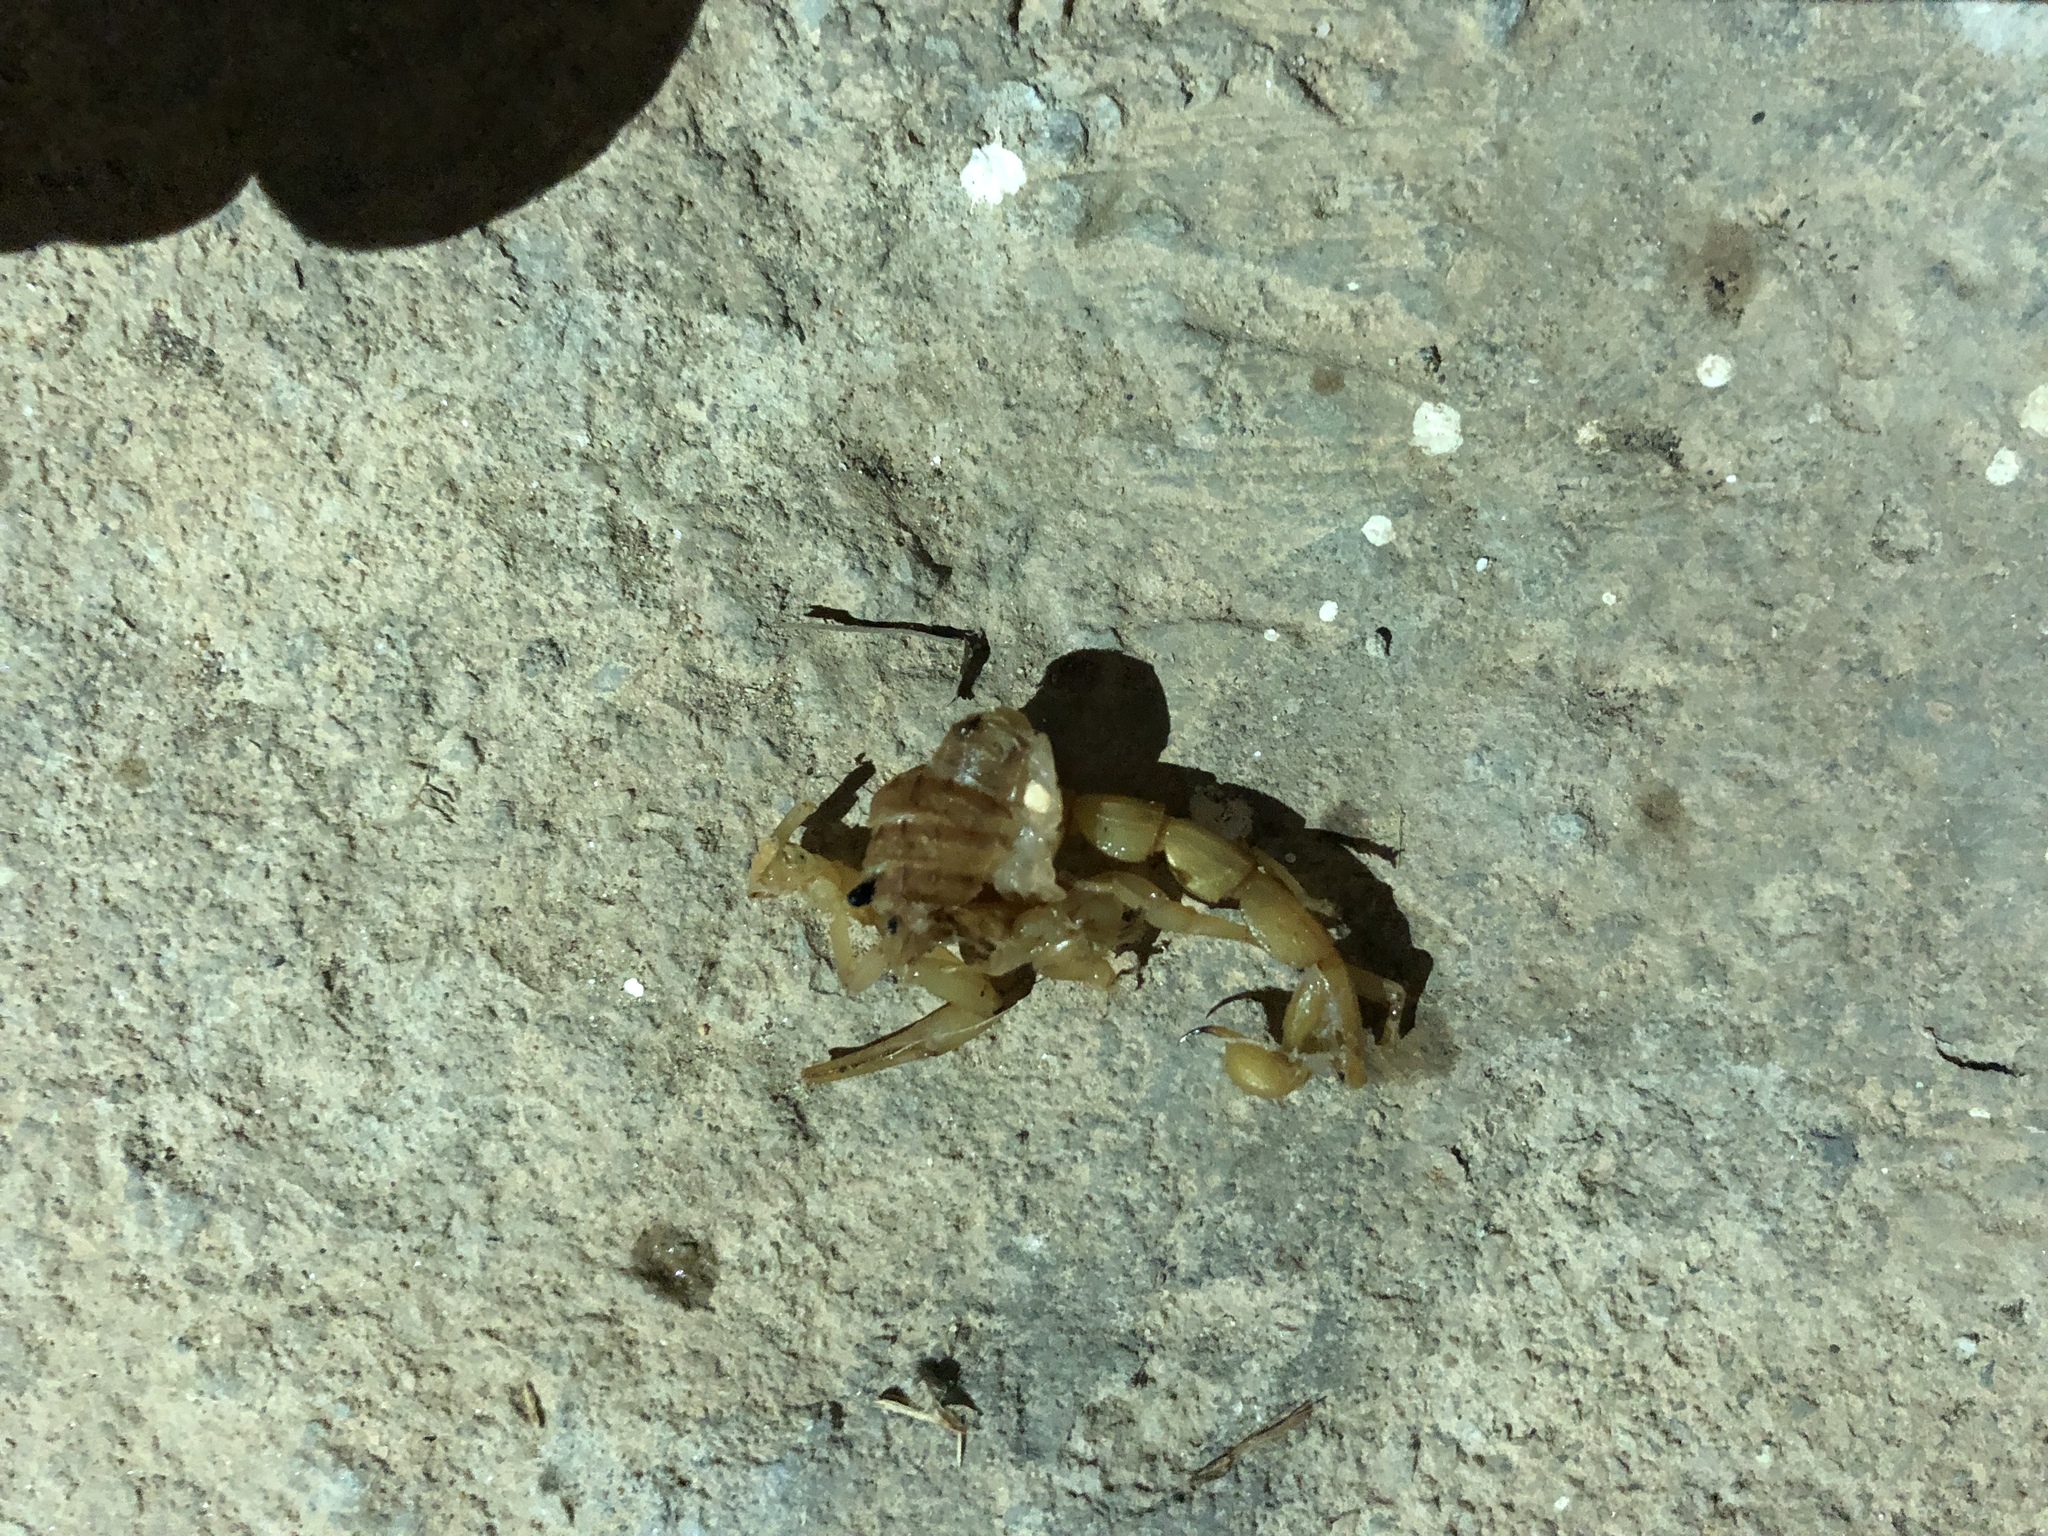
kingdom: Animalia
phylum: Arthropoda
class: Arachnida
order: Scorpiones
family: Buthidae
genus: Aegaeobuthus
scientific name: Aegaeobuthus gibbosus
